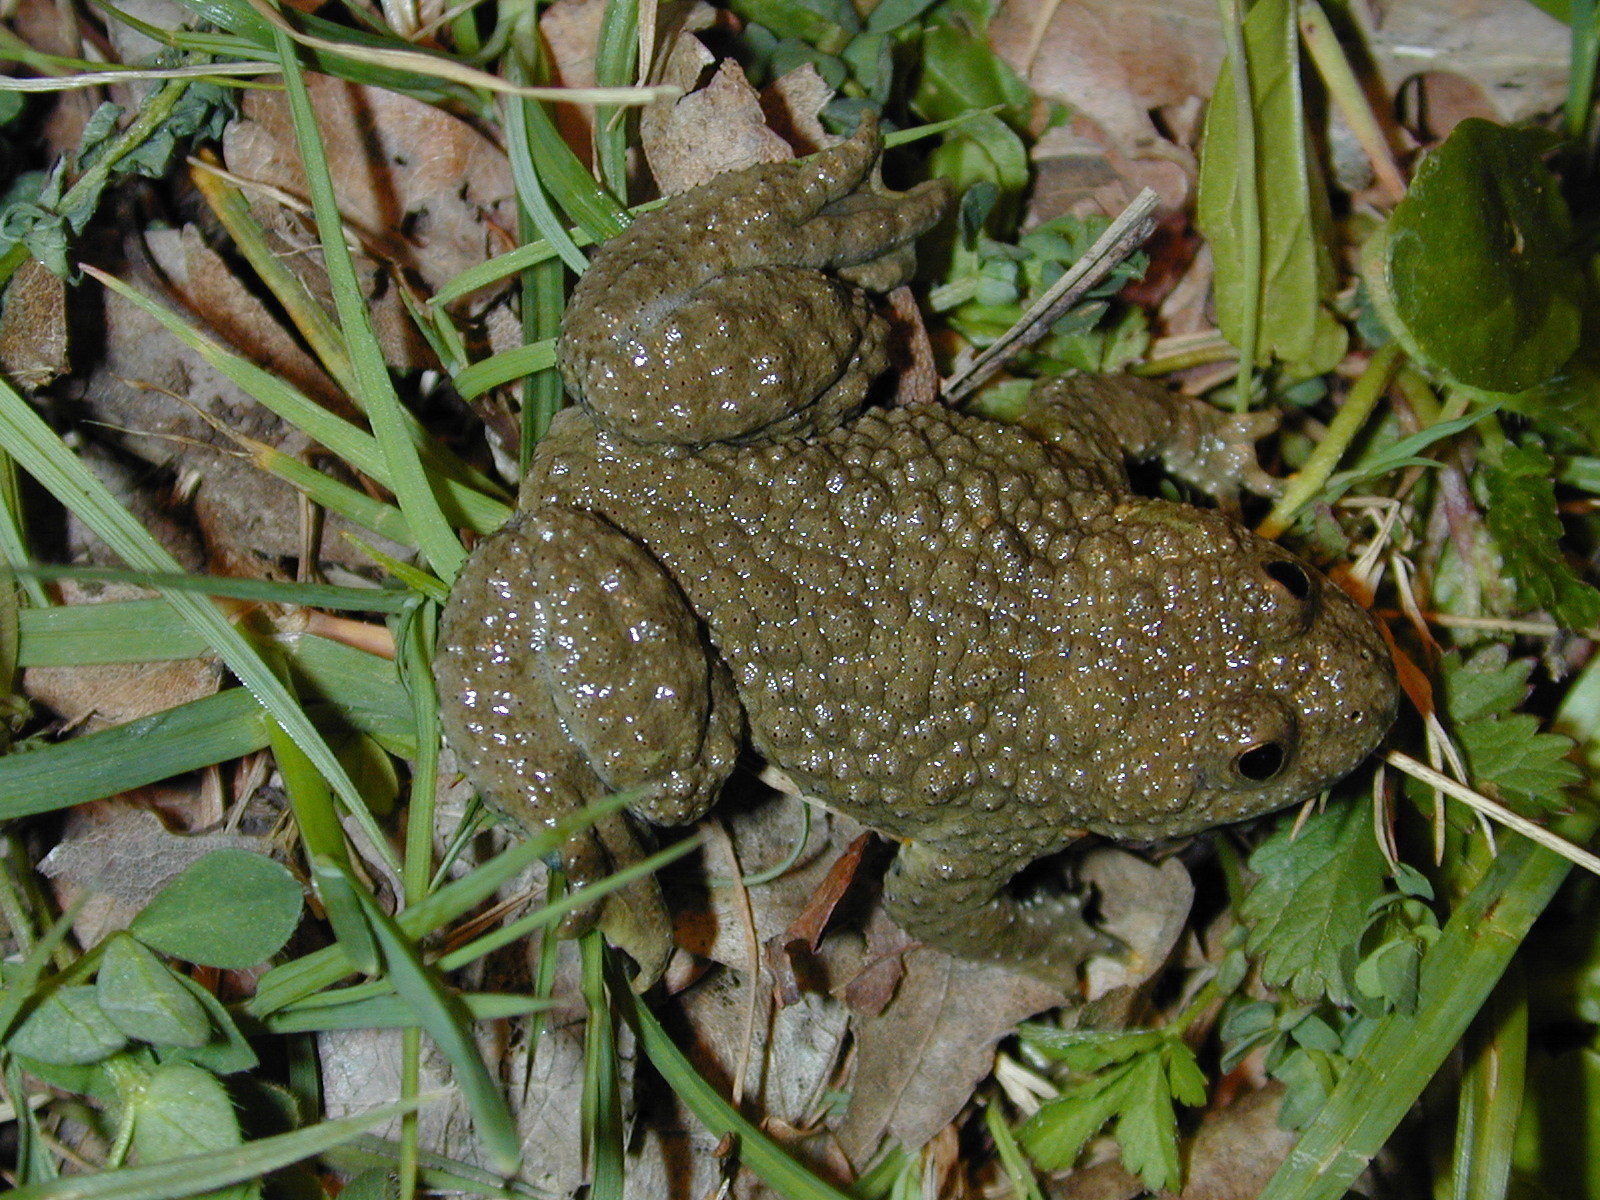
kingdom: Animalia
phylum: Chordata
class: Amphibia
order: Anura
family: Bombinatoridae
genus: Bombina
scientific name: Bombina variegata
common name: Yellow-bellied toad
